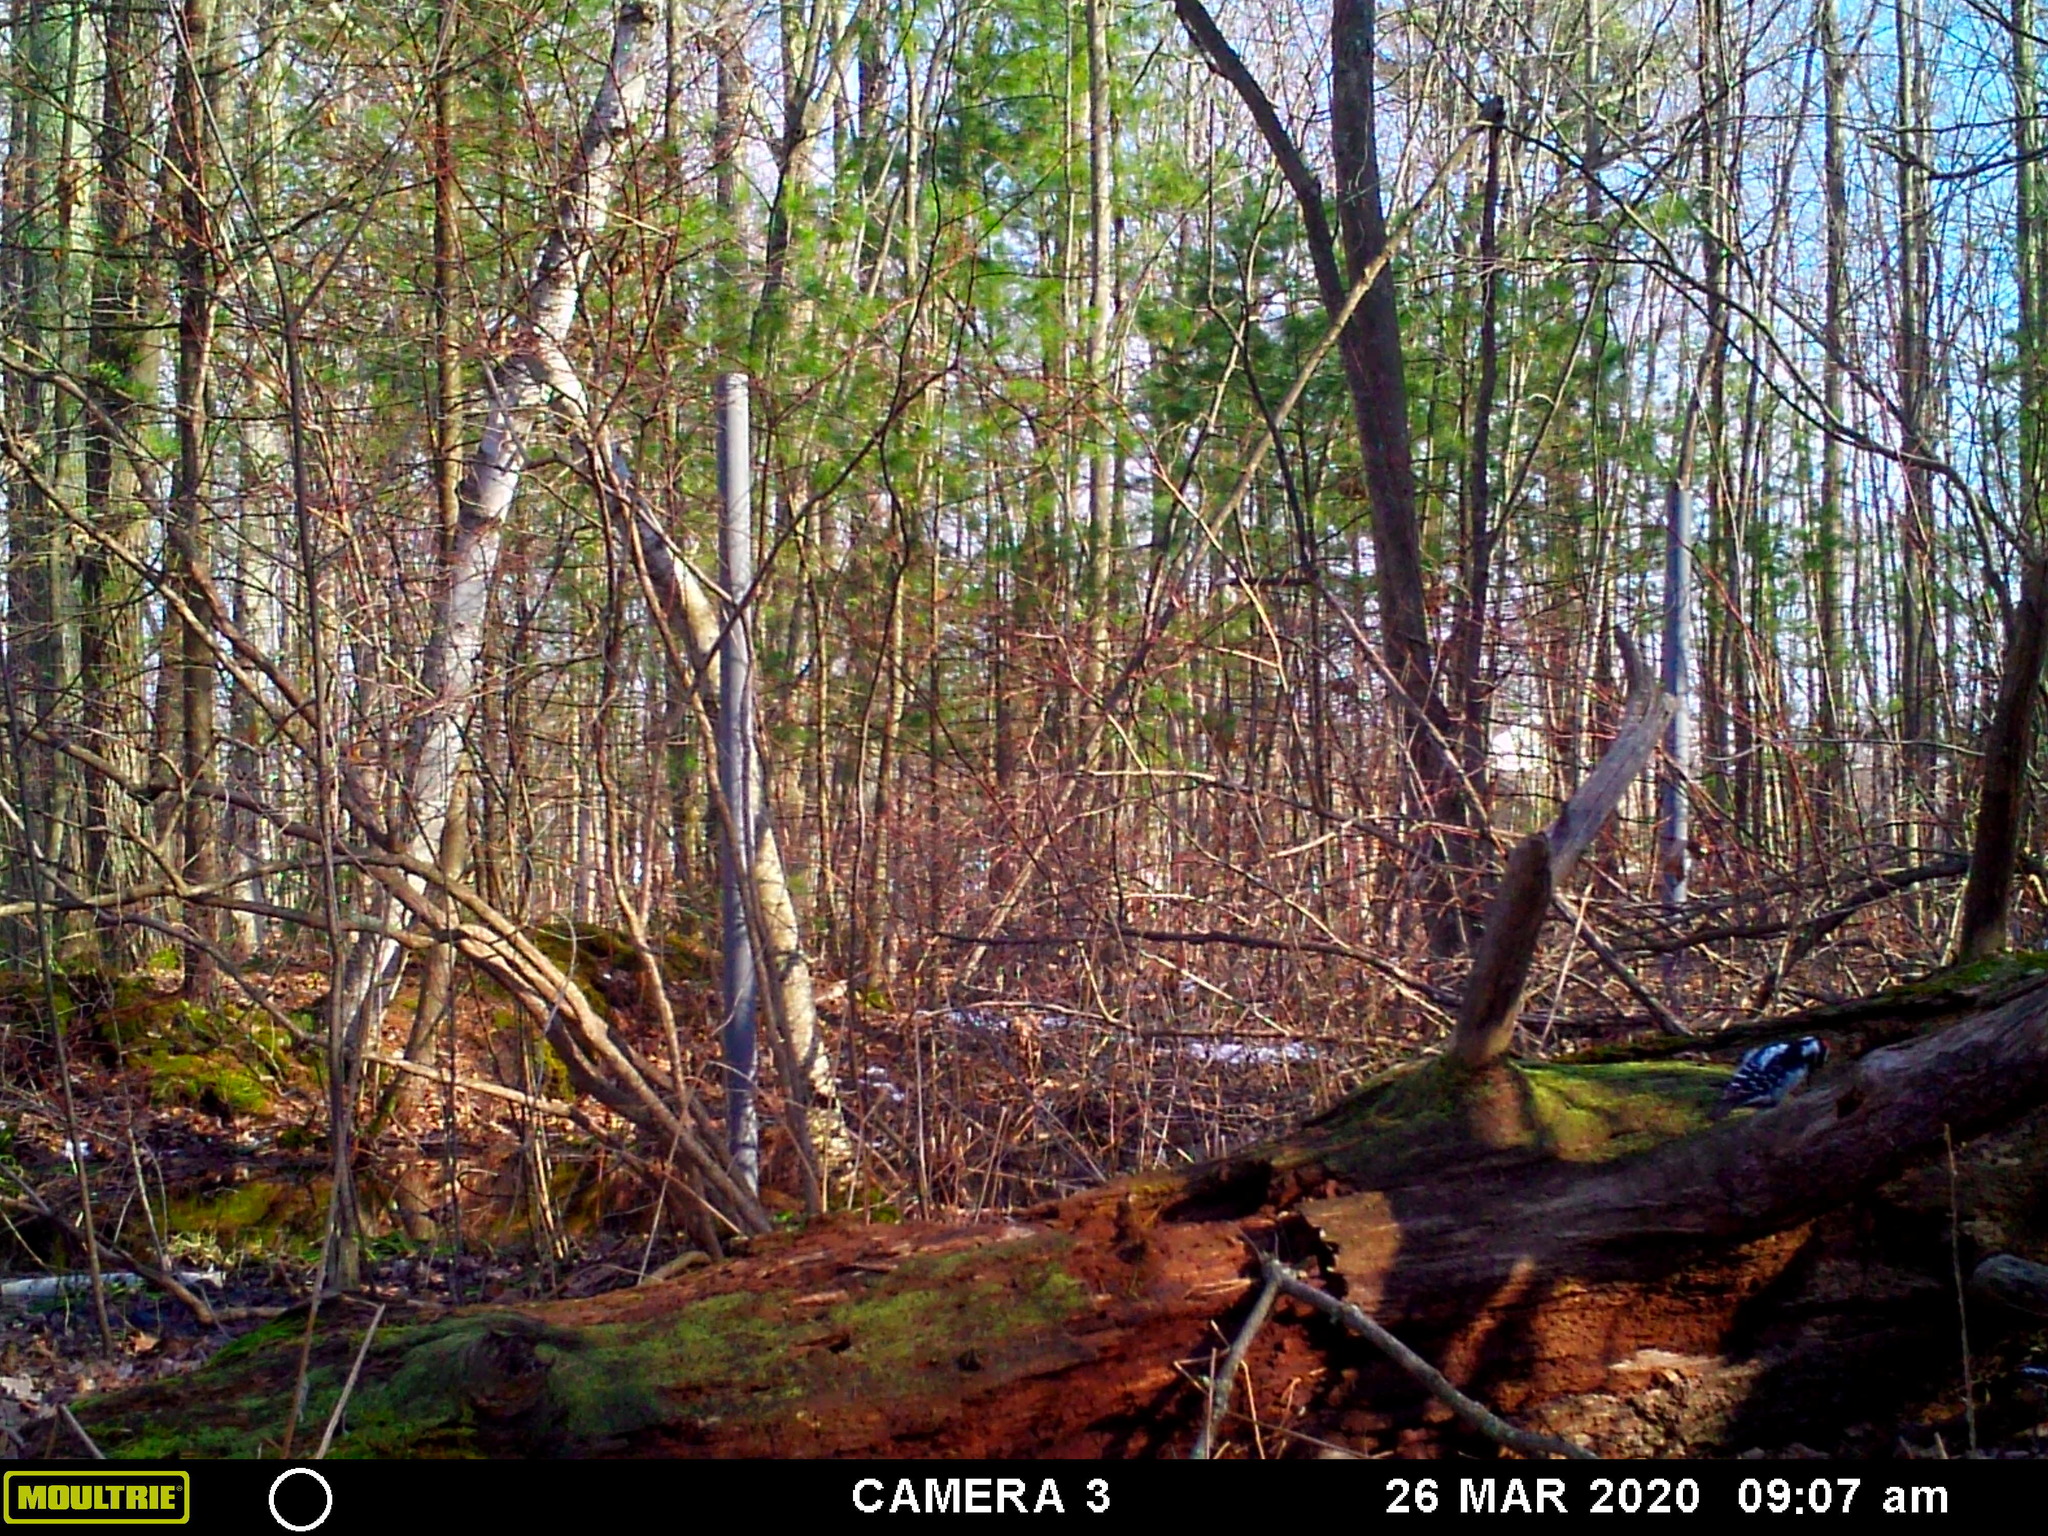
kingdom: Animalia
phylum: Chordata
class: Aves
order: Piciformes
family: Picidae
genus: Leuconotopicus
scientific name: Leuconotopicus villosus
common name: Hairy woodpecker
